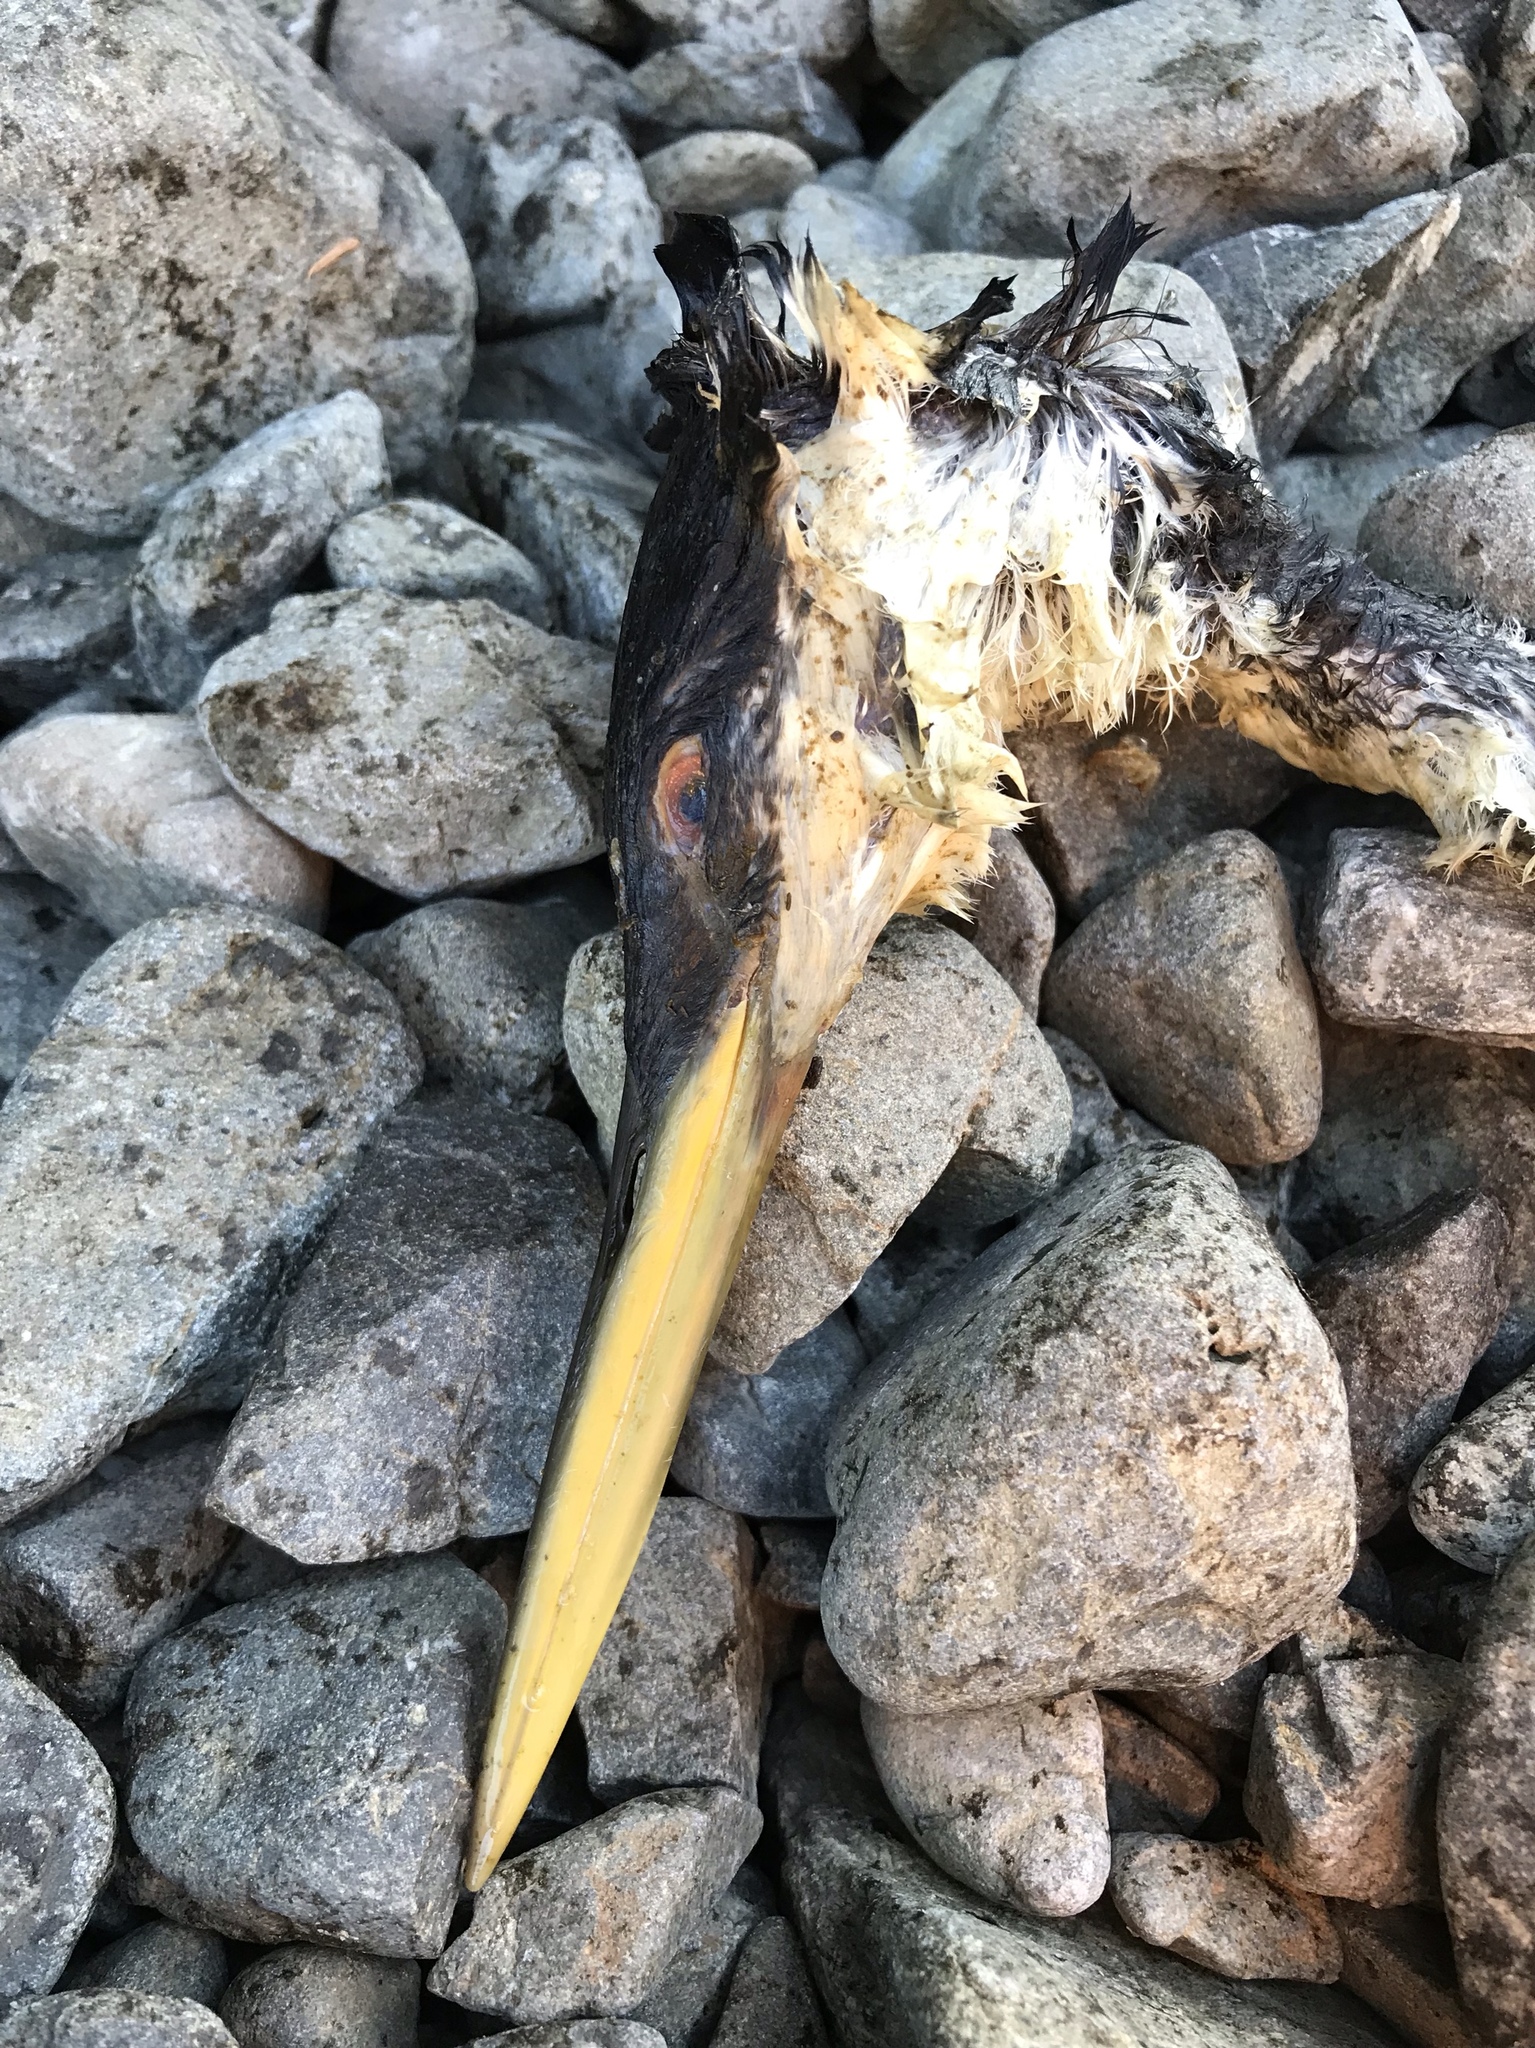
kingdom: Animalia
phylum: Chordata
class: Aves
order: Podicipediformes
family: Podicipedidae
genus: Aechmophorus
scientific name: Aechmophorus occidentalis
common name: Western grebe
